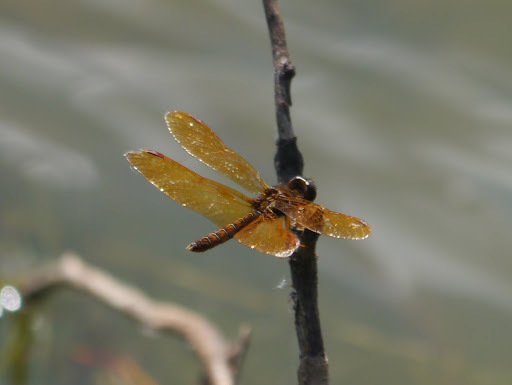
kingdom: Animalia
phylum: Arthropoda
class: Insecta
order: Odonata
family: Libellulidae
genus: Perithemis
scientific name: Perithemis tenera
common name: Eastern amberwing
